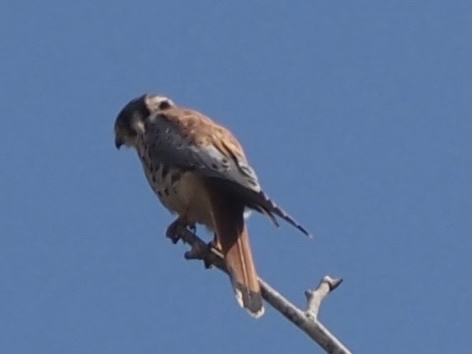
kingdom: Animalia
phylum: Chordata
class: Aves
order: Falconiformes
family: Falconidae
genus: Falco
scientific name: Falco sparverius
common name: American kestrel
